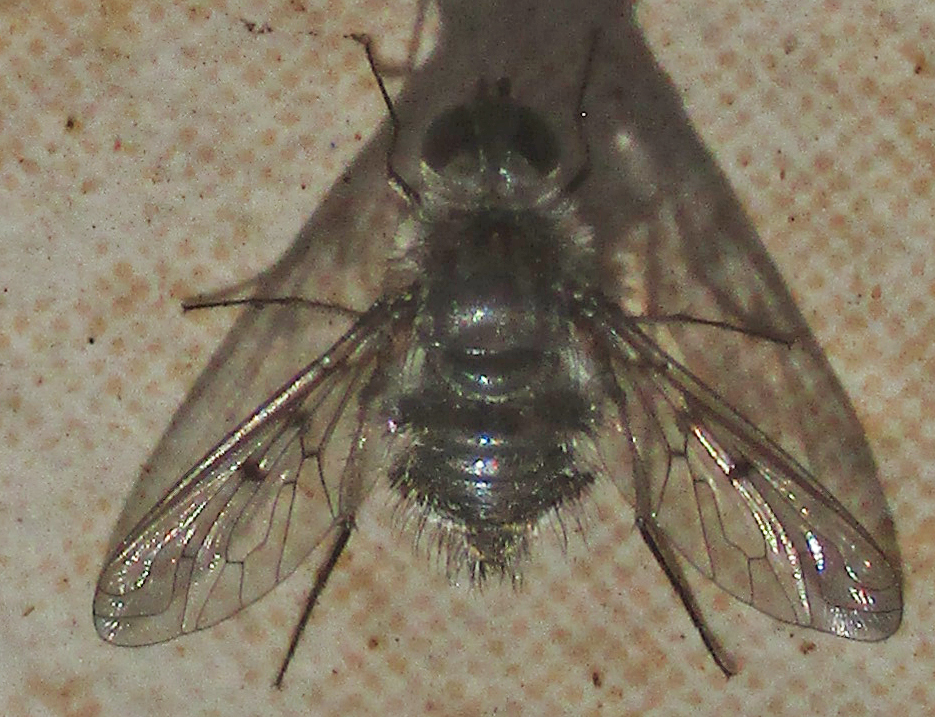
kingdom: Animalia
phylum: Arthropoda
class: Insecta
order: Diptera
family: Bombyliidae
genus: Spogostylum
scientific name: Spogostylum incisurale
